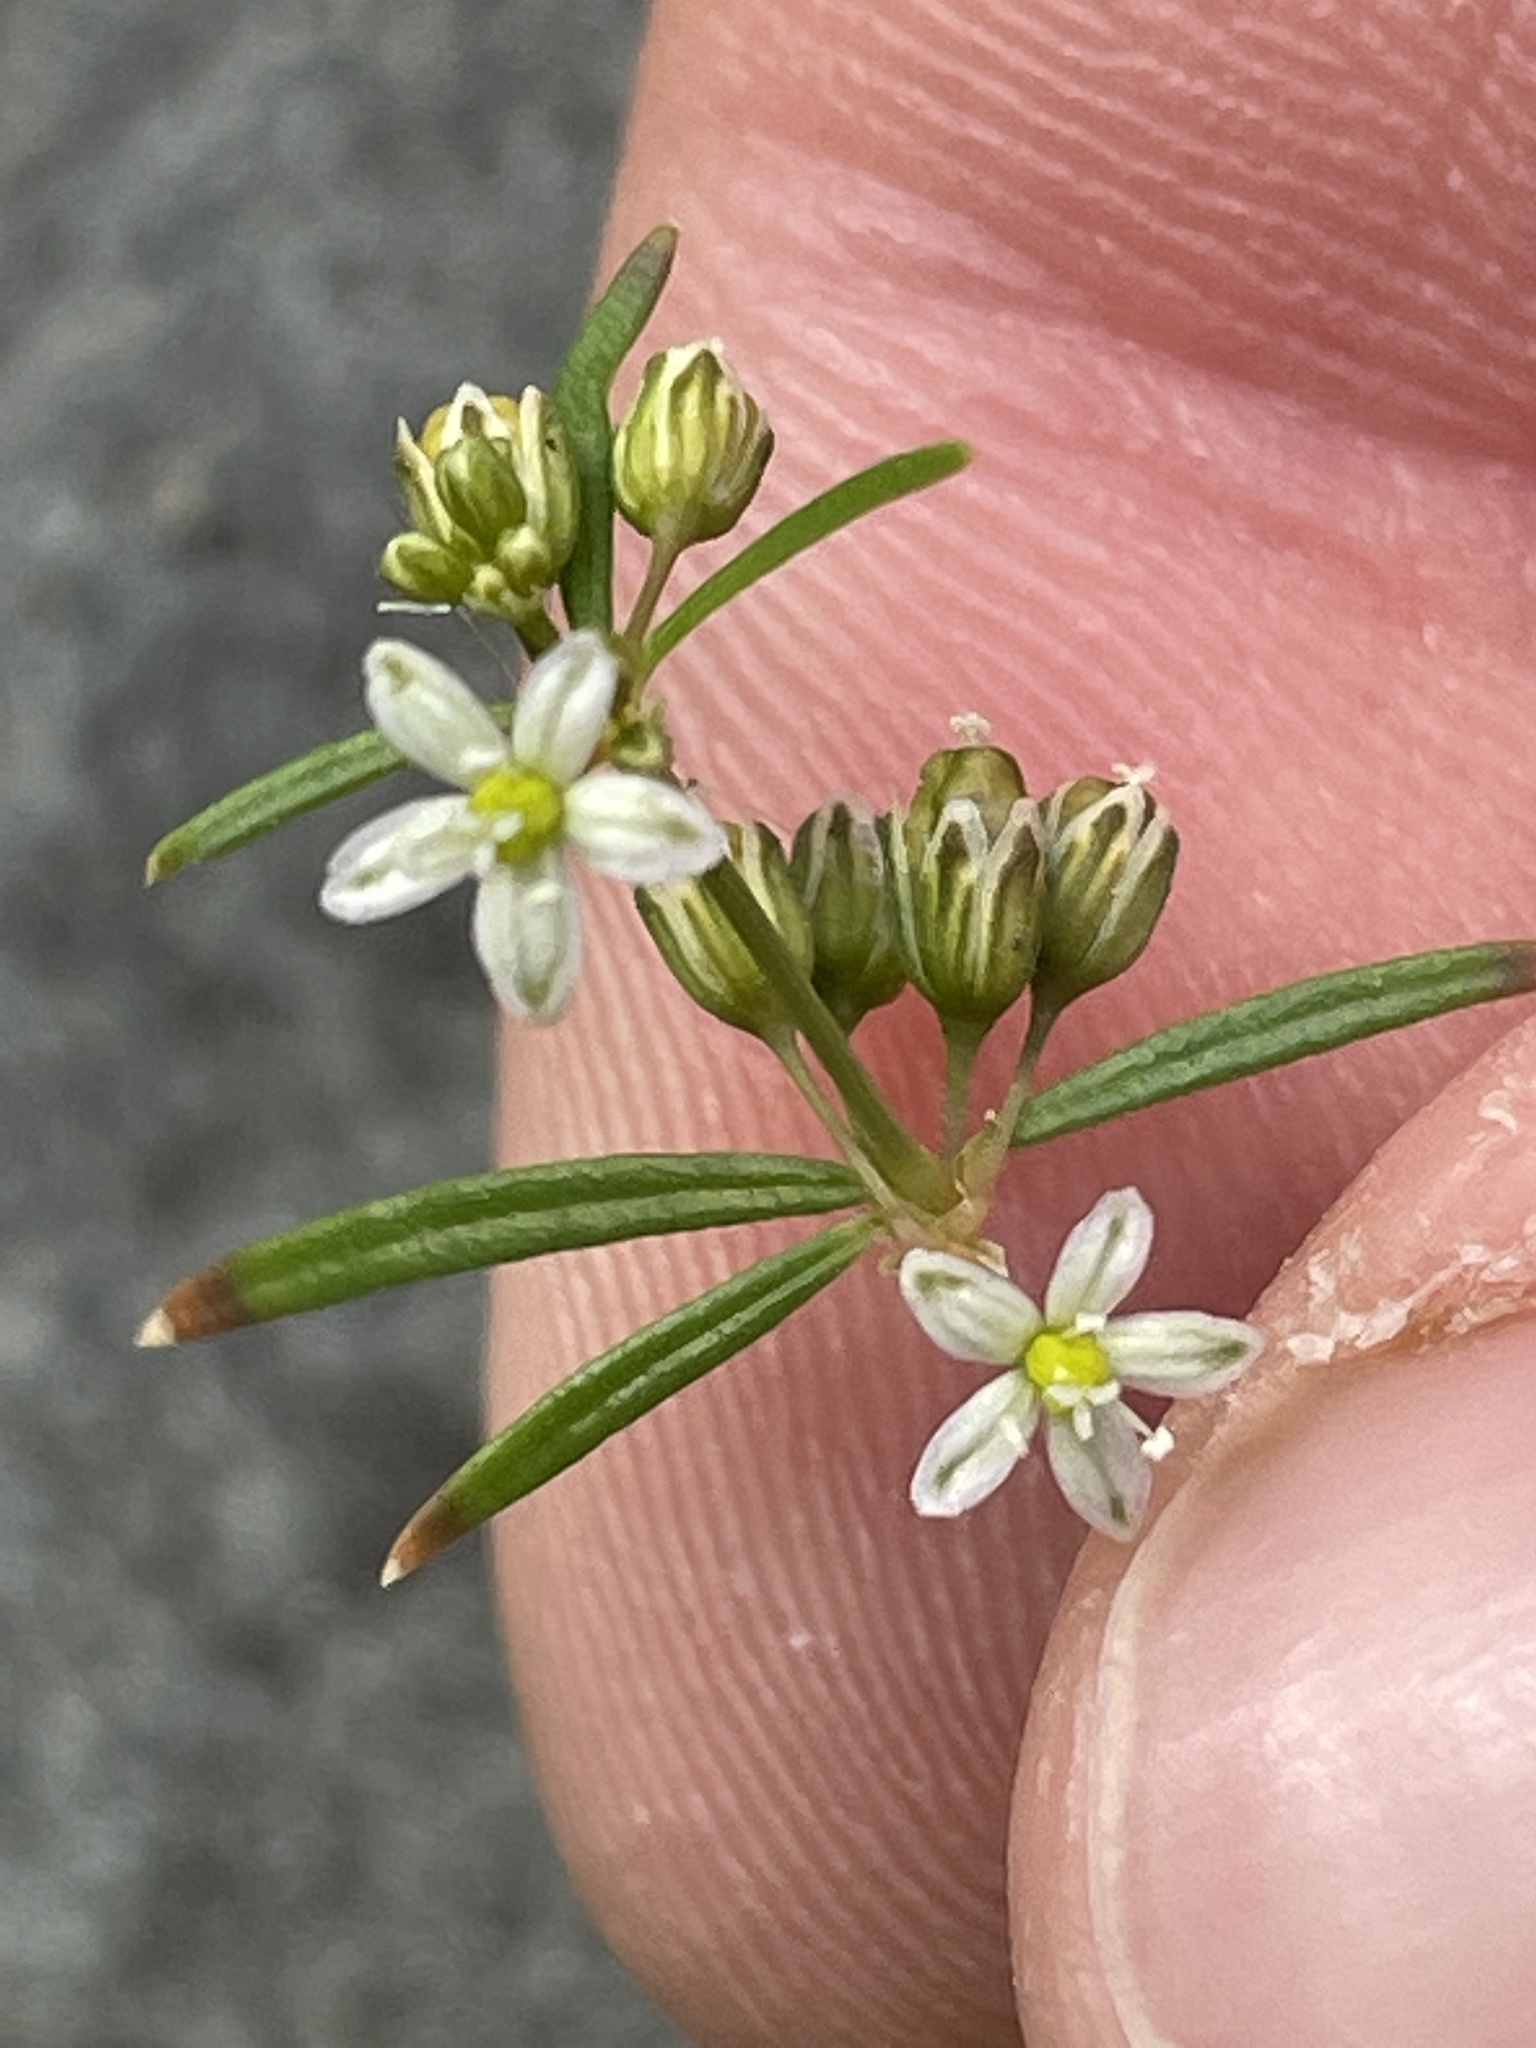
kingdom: Plantae
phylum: Tracheophyta
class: Magnoliopsida
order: Caryophyllales
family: Molluginaceae
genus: Mollugo
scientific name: Mollugo verticillata
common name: Green carpetweed
